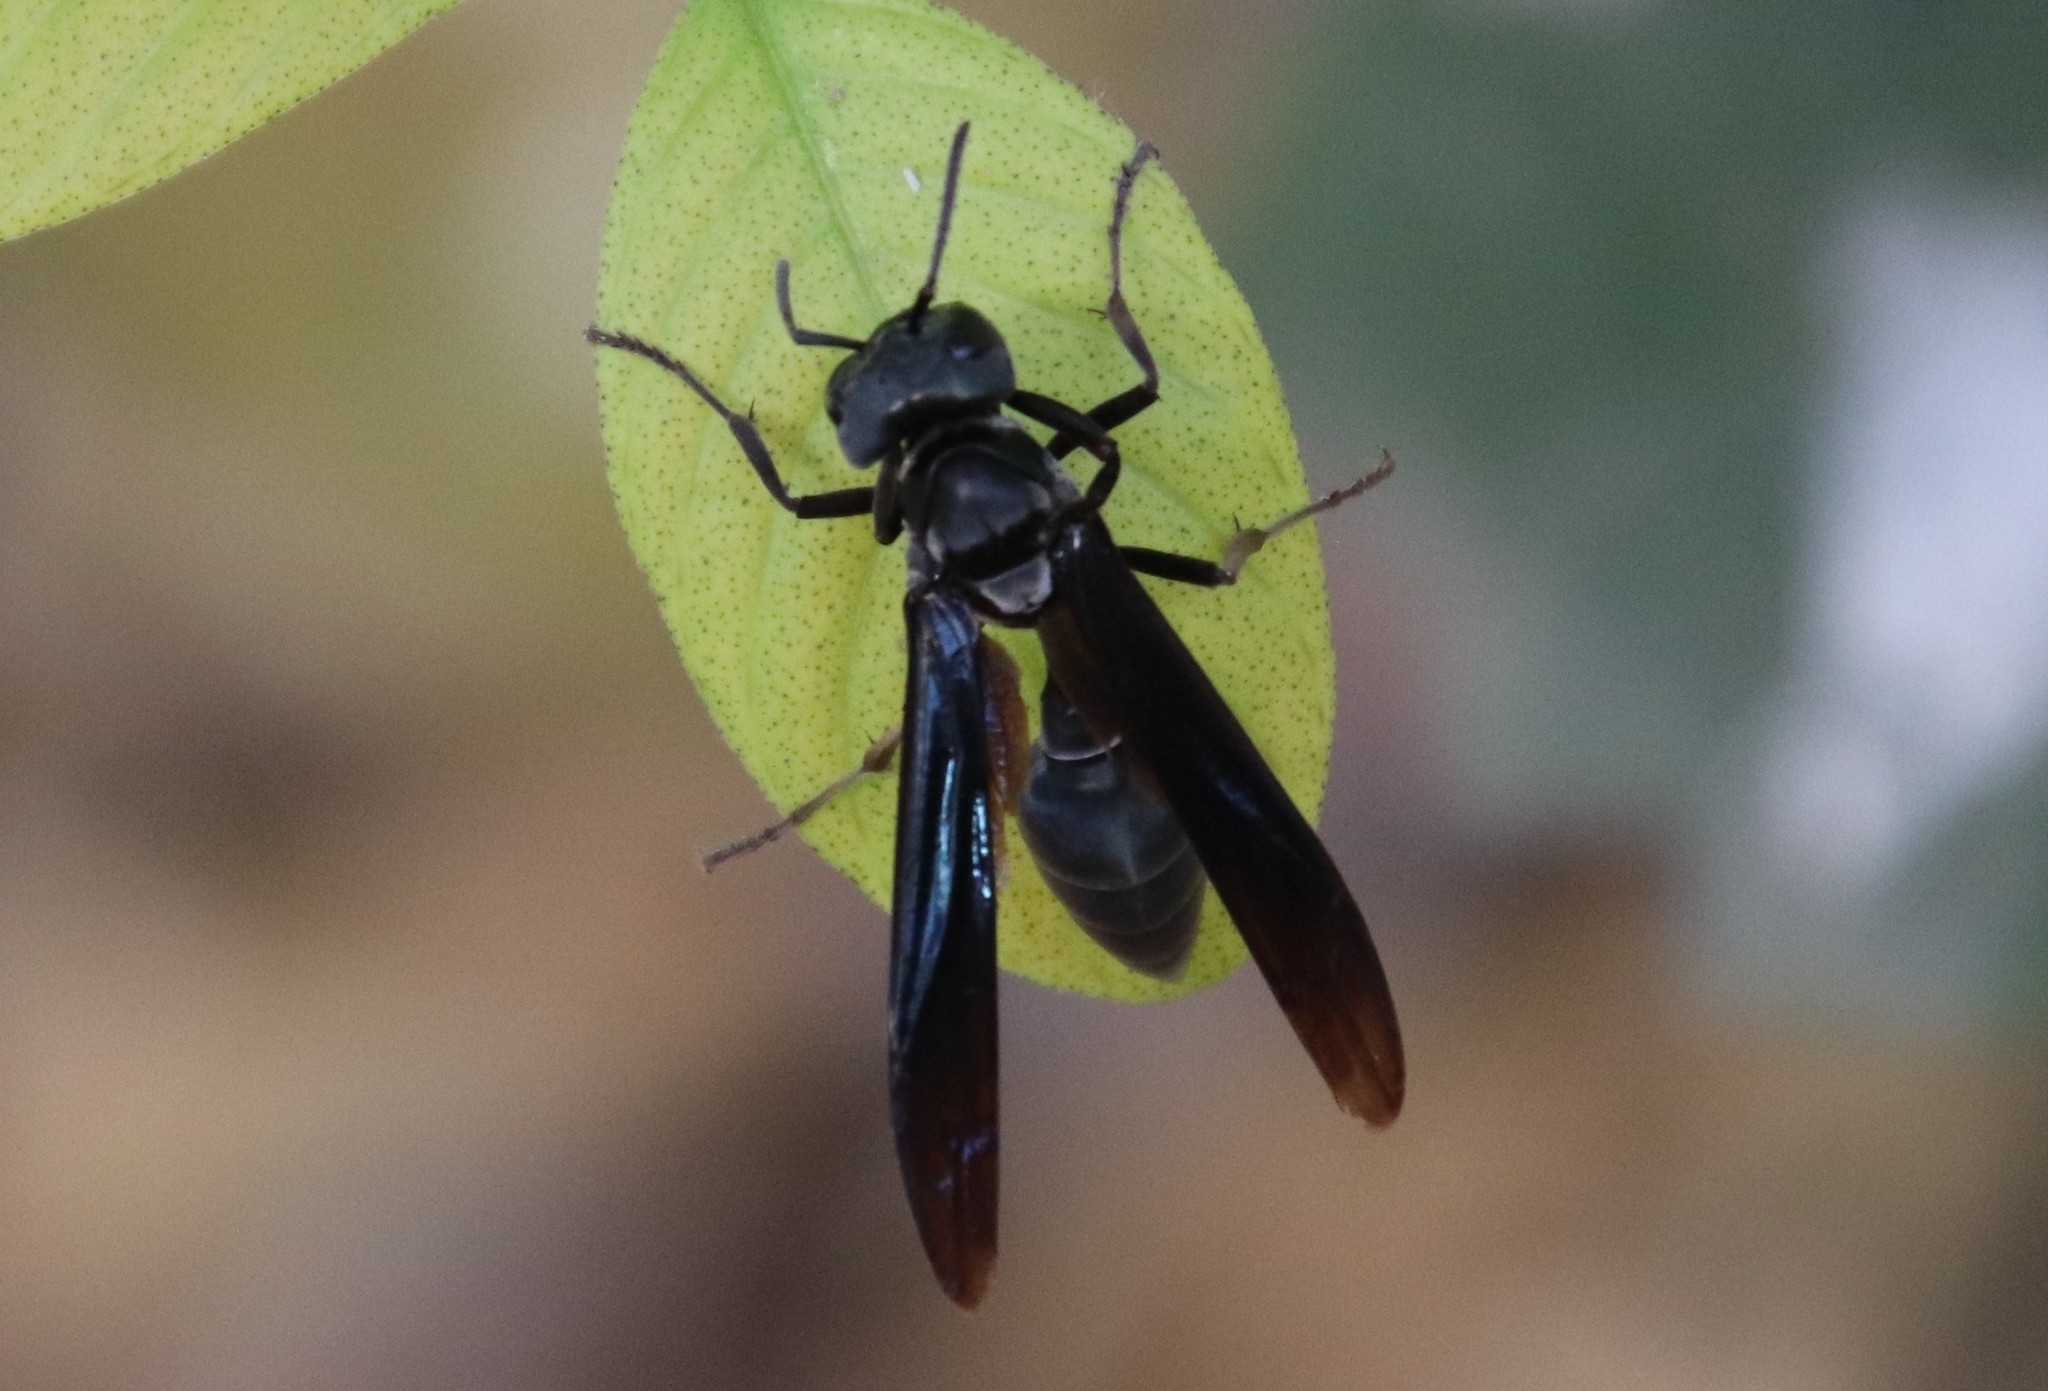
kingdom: Animalia
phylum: Arthropoda
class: Insecta
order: Hymenoptera
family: Vespidae
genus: Synoeca
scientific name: Synoeca surinama
